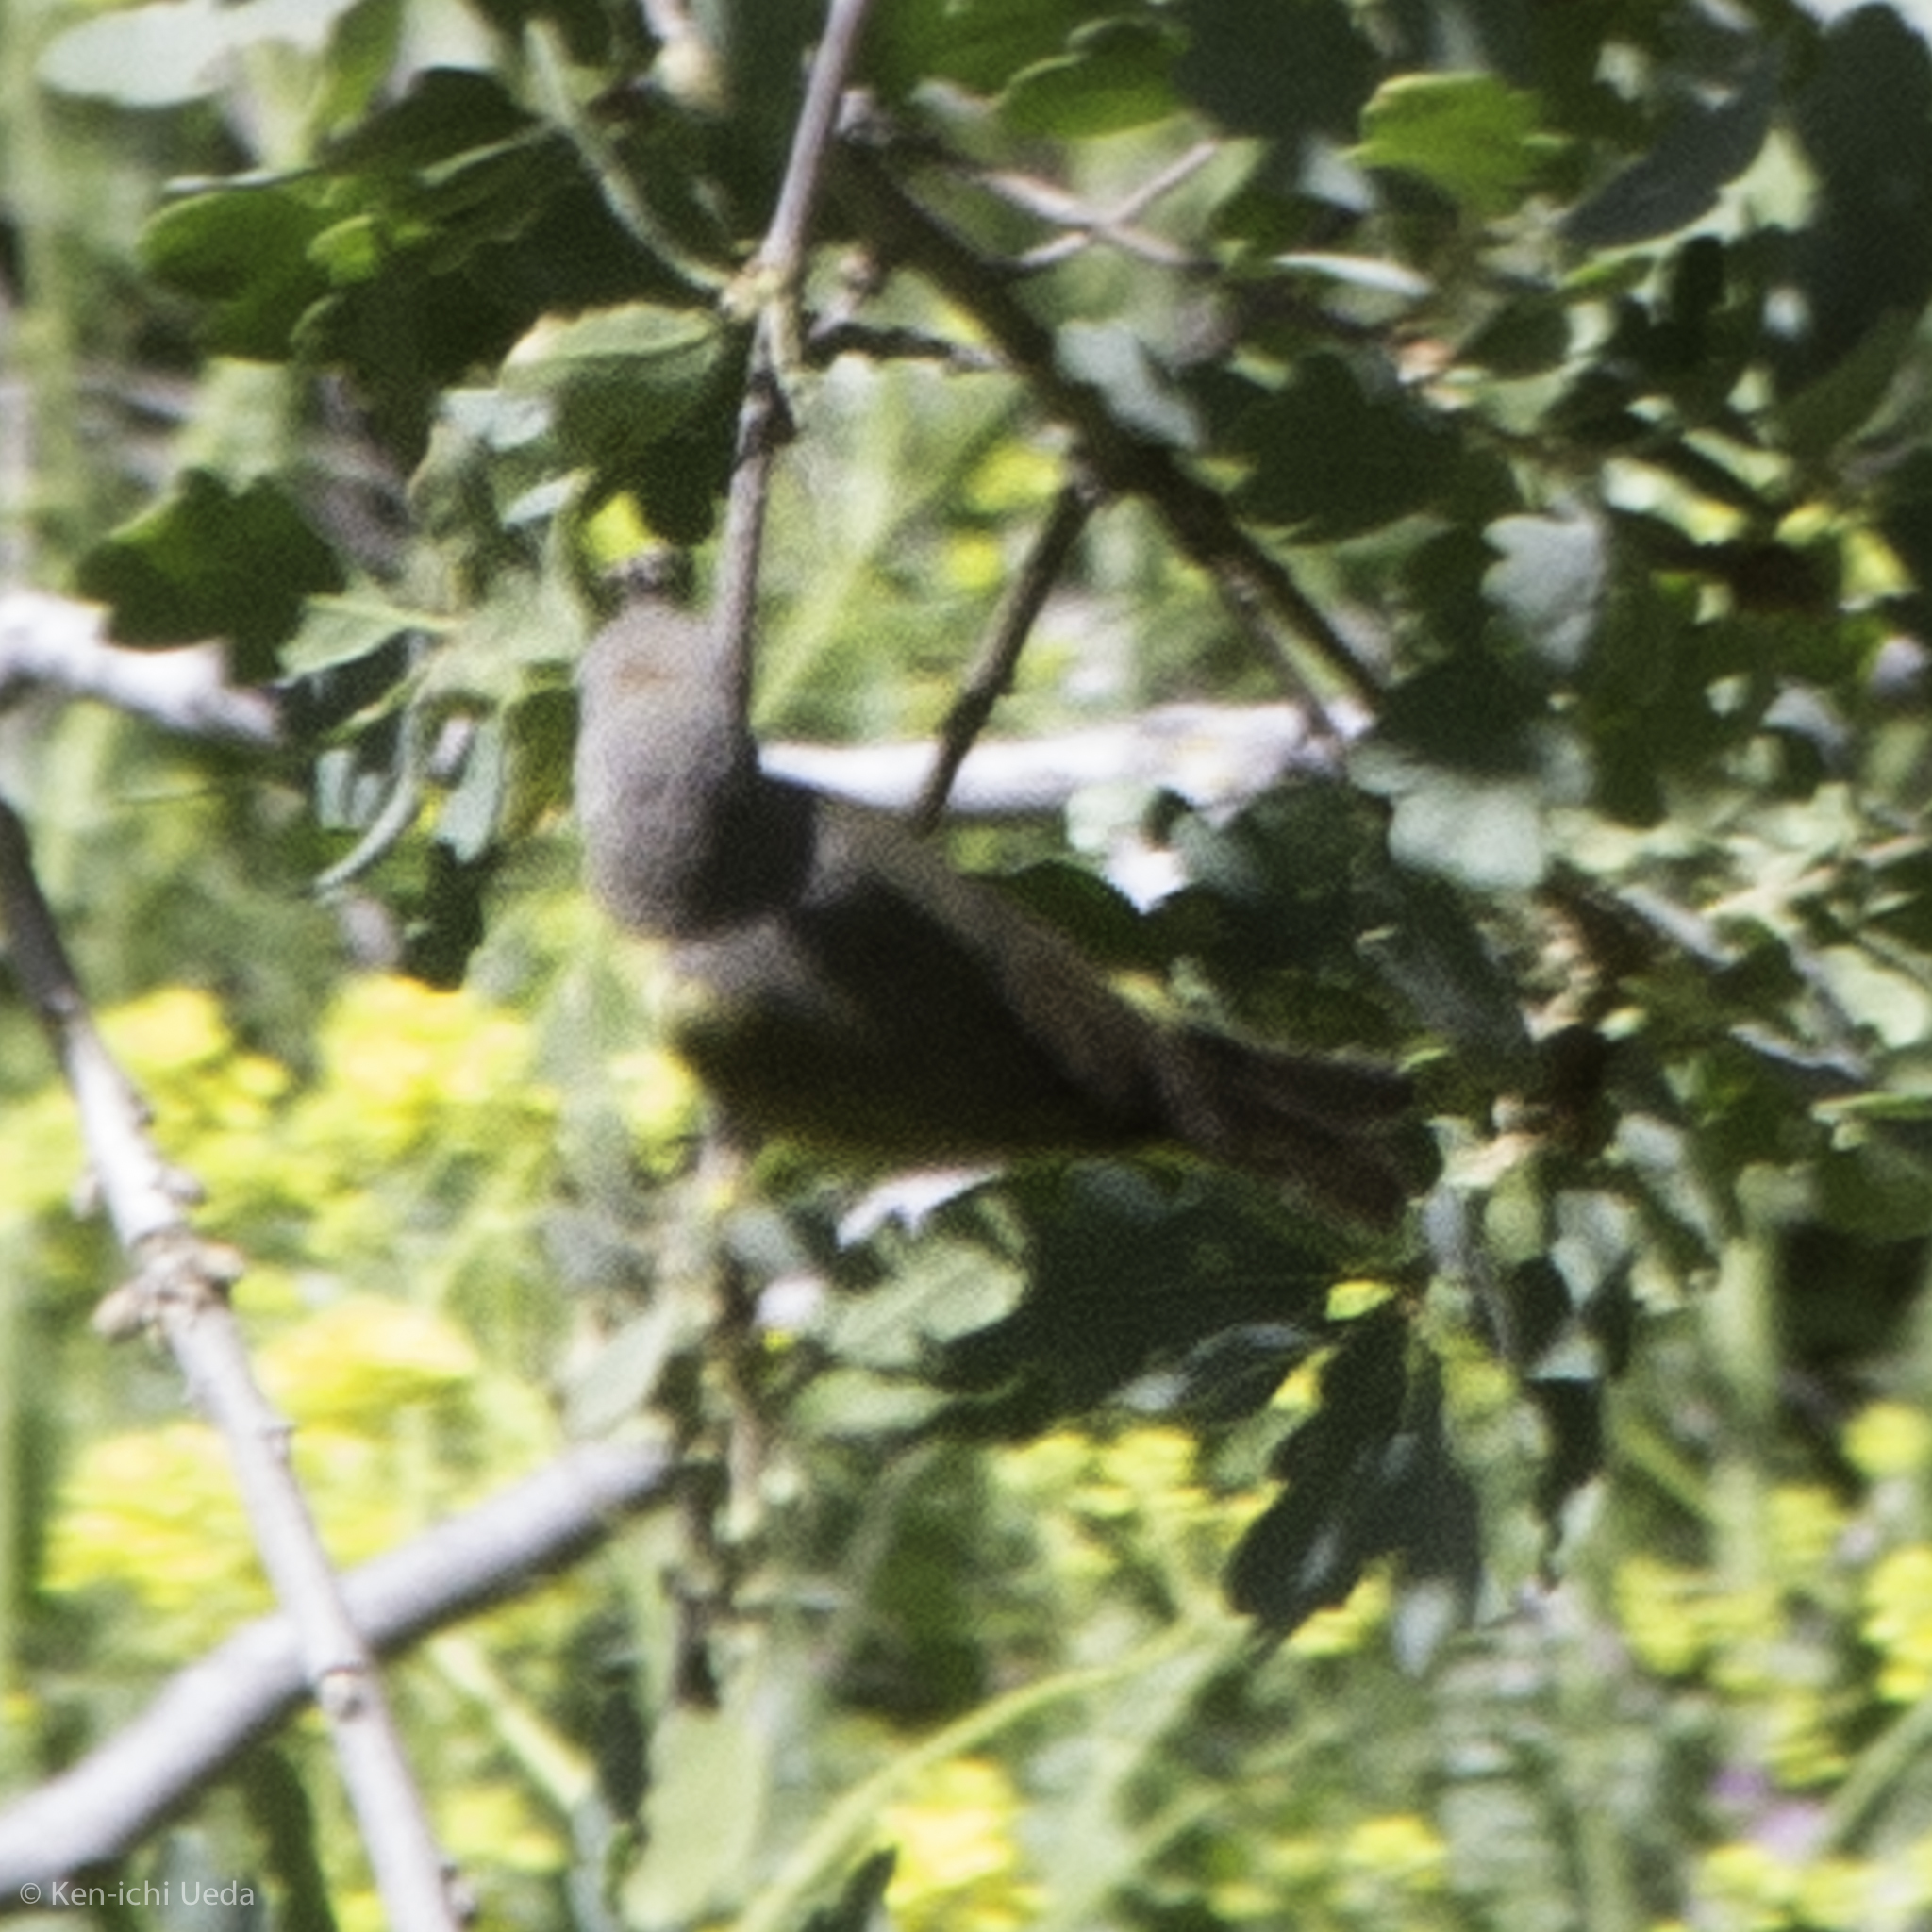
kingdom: Animalia
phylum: Chordata
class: Aves
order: Passeriformes
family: Parulidae
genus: Leiothlypis
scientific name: Leiothlypis ruficapilla
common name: Nashville warbler
